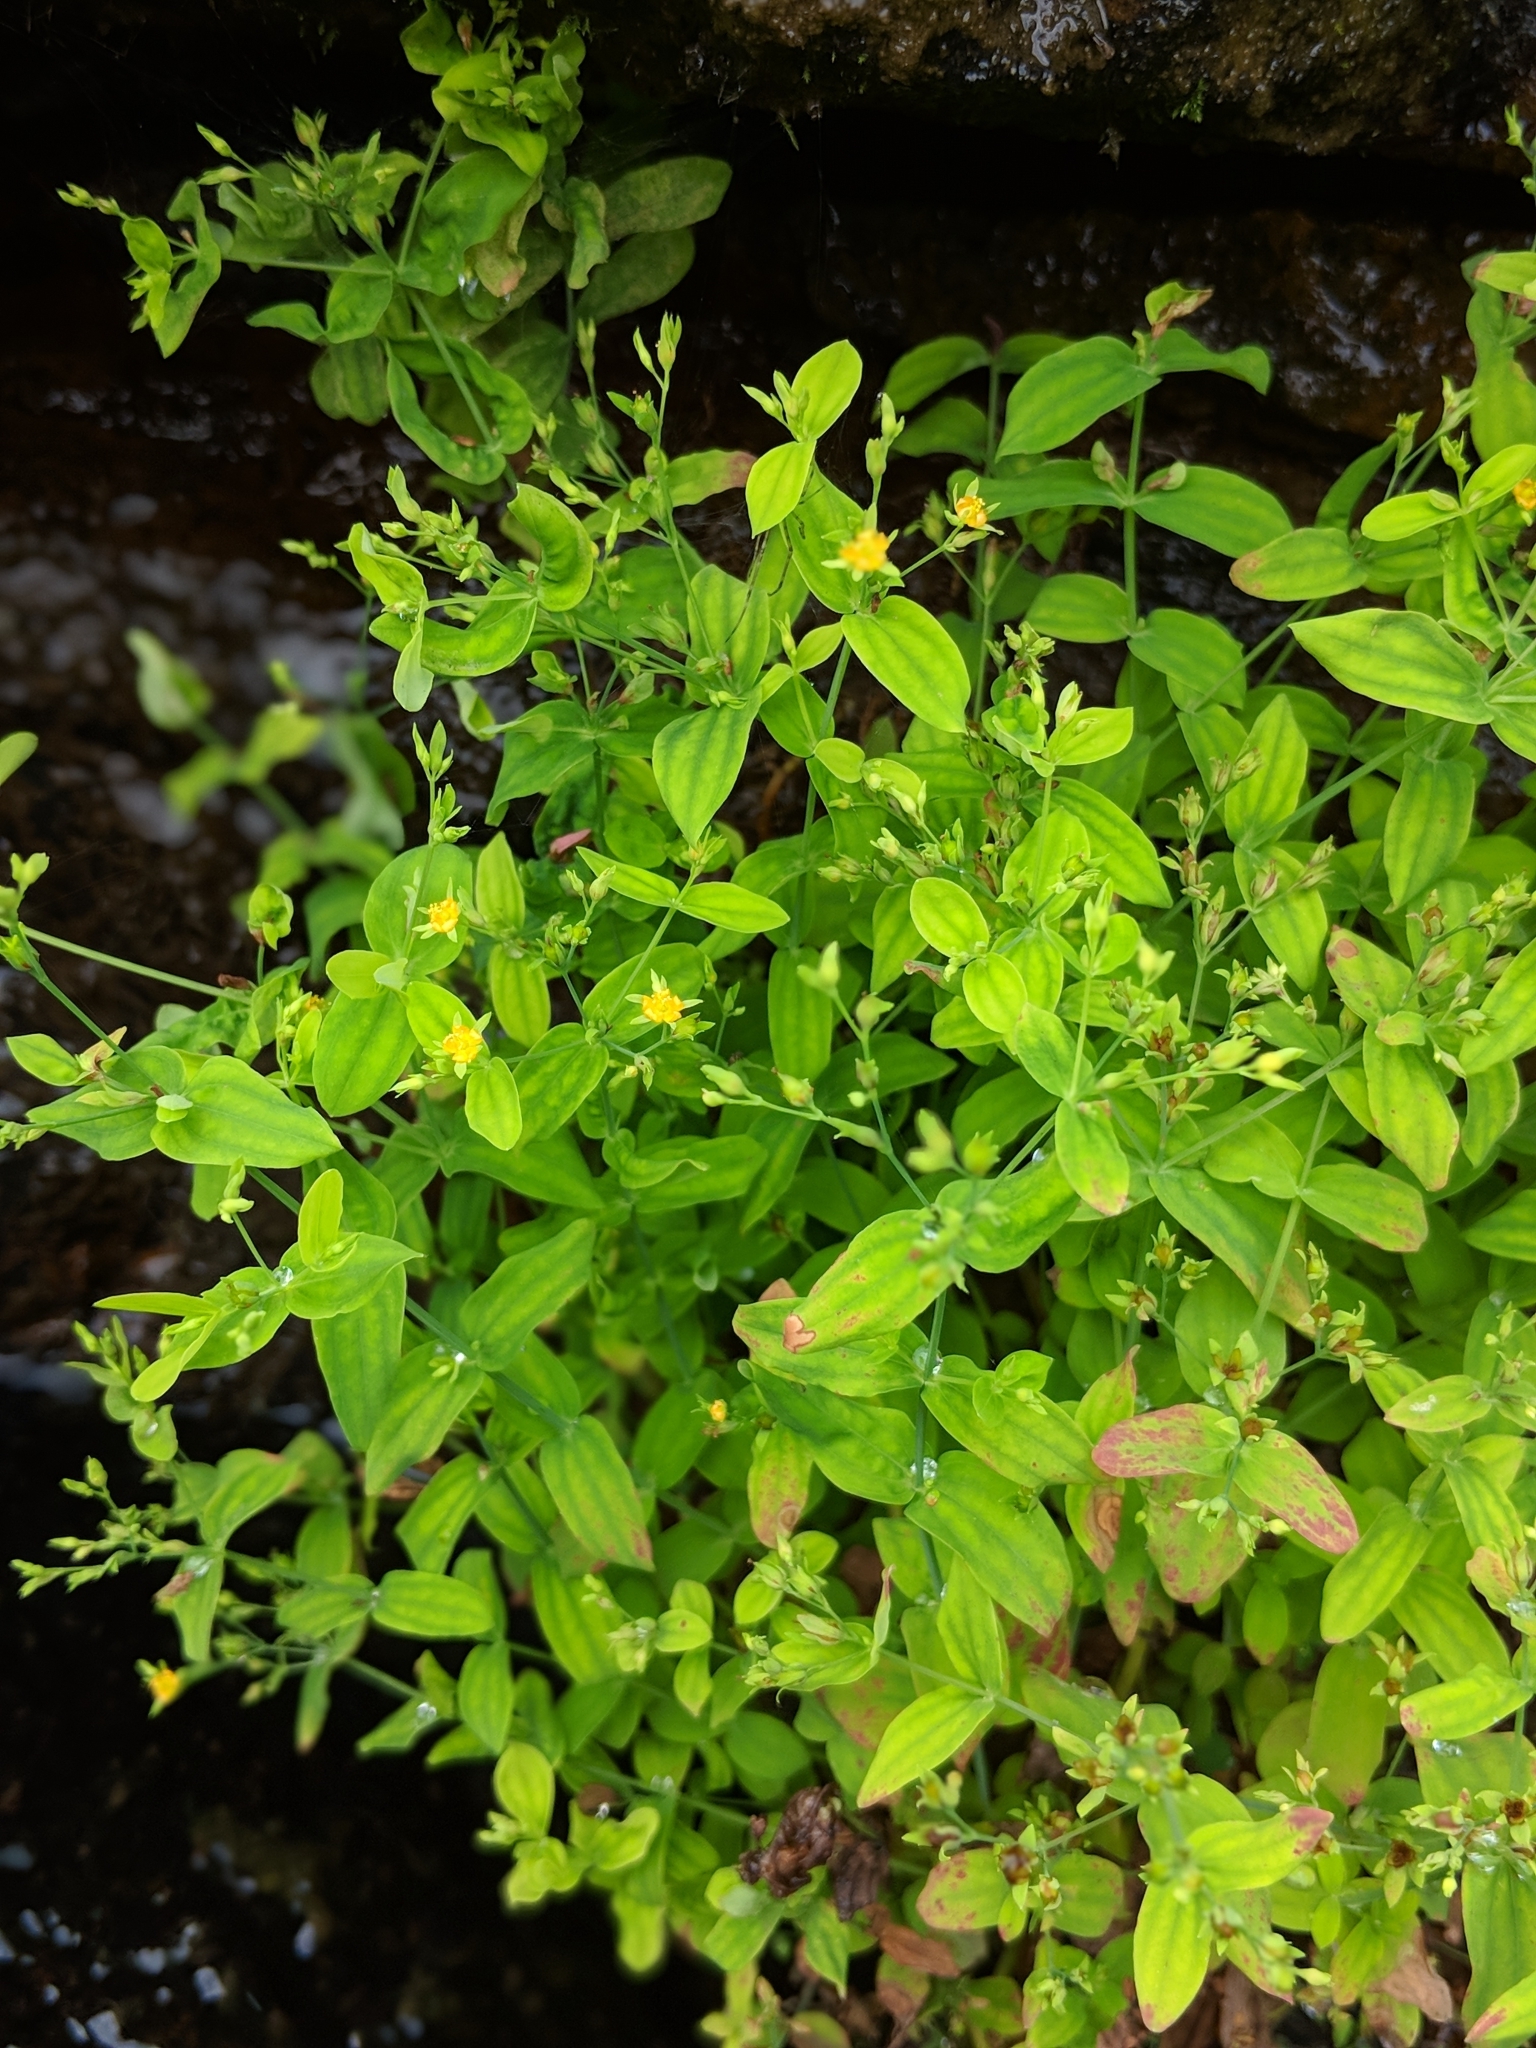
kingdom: Plantae
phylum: Tracheophyta
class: Magnoliopsida
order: Malpighiales
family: Hypericaceae
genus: Hypericum
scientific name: Hypericum mutilum
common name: Dwarf st. john's-wort
